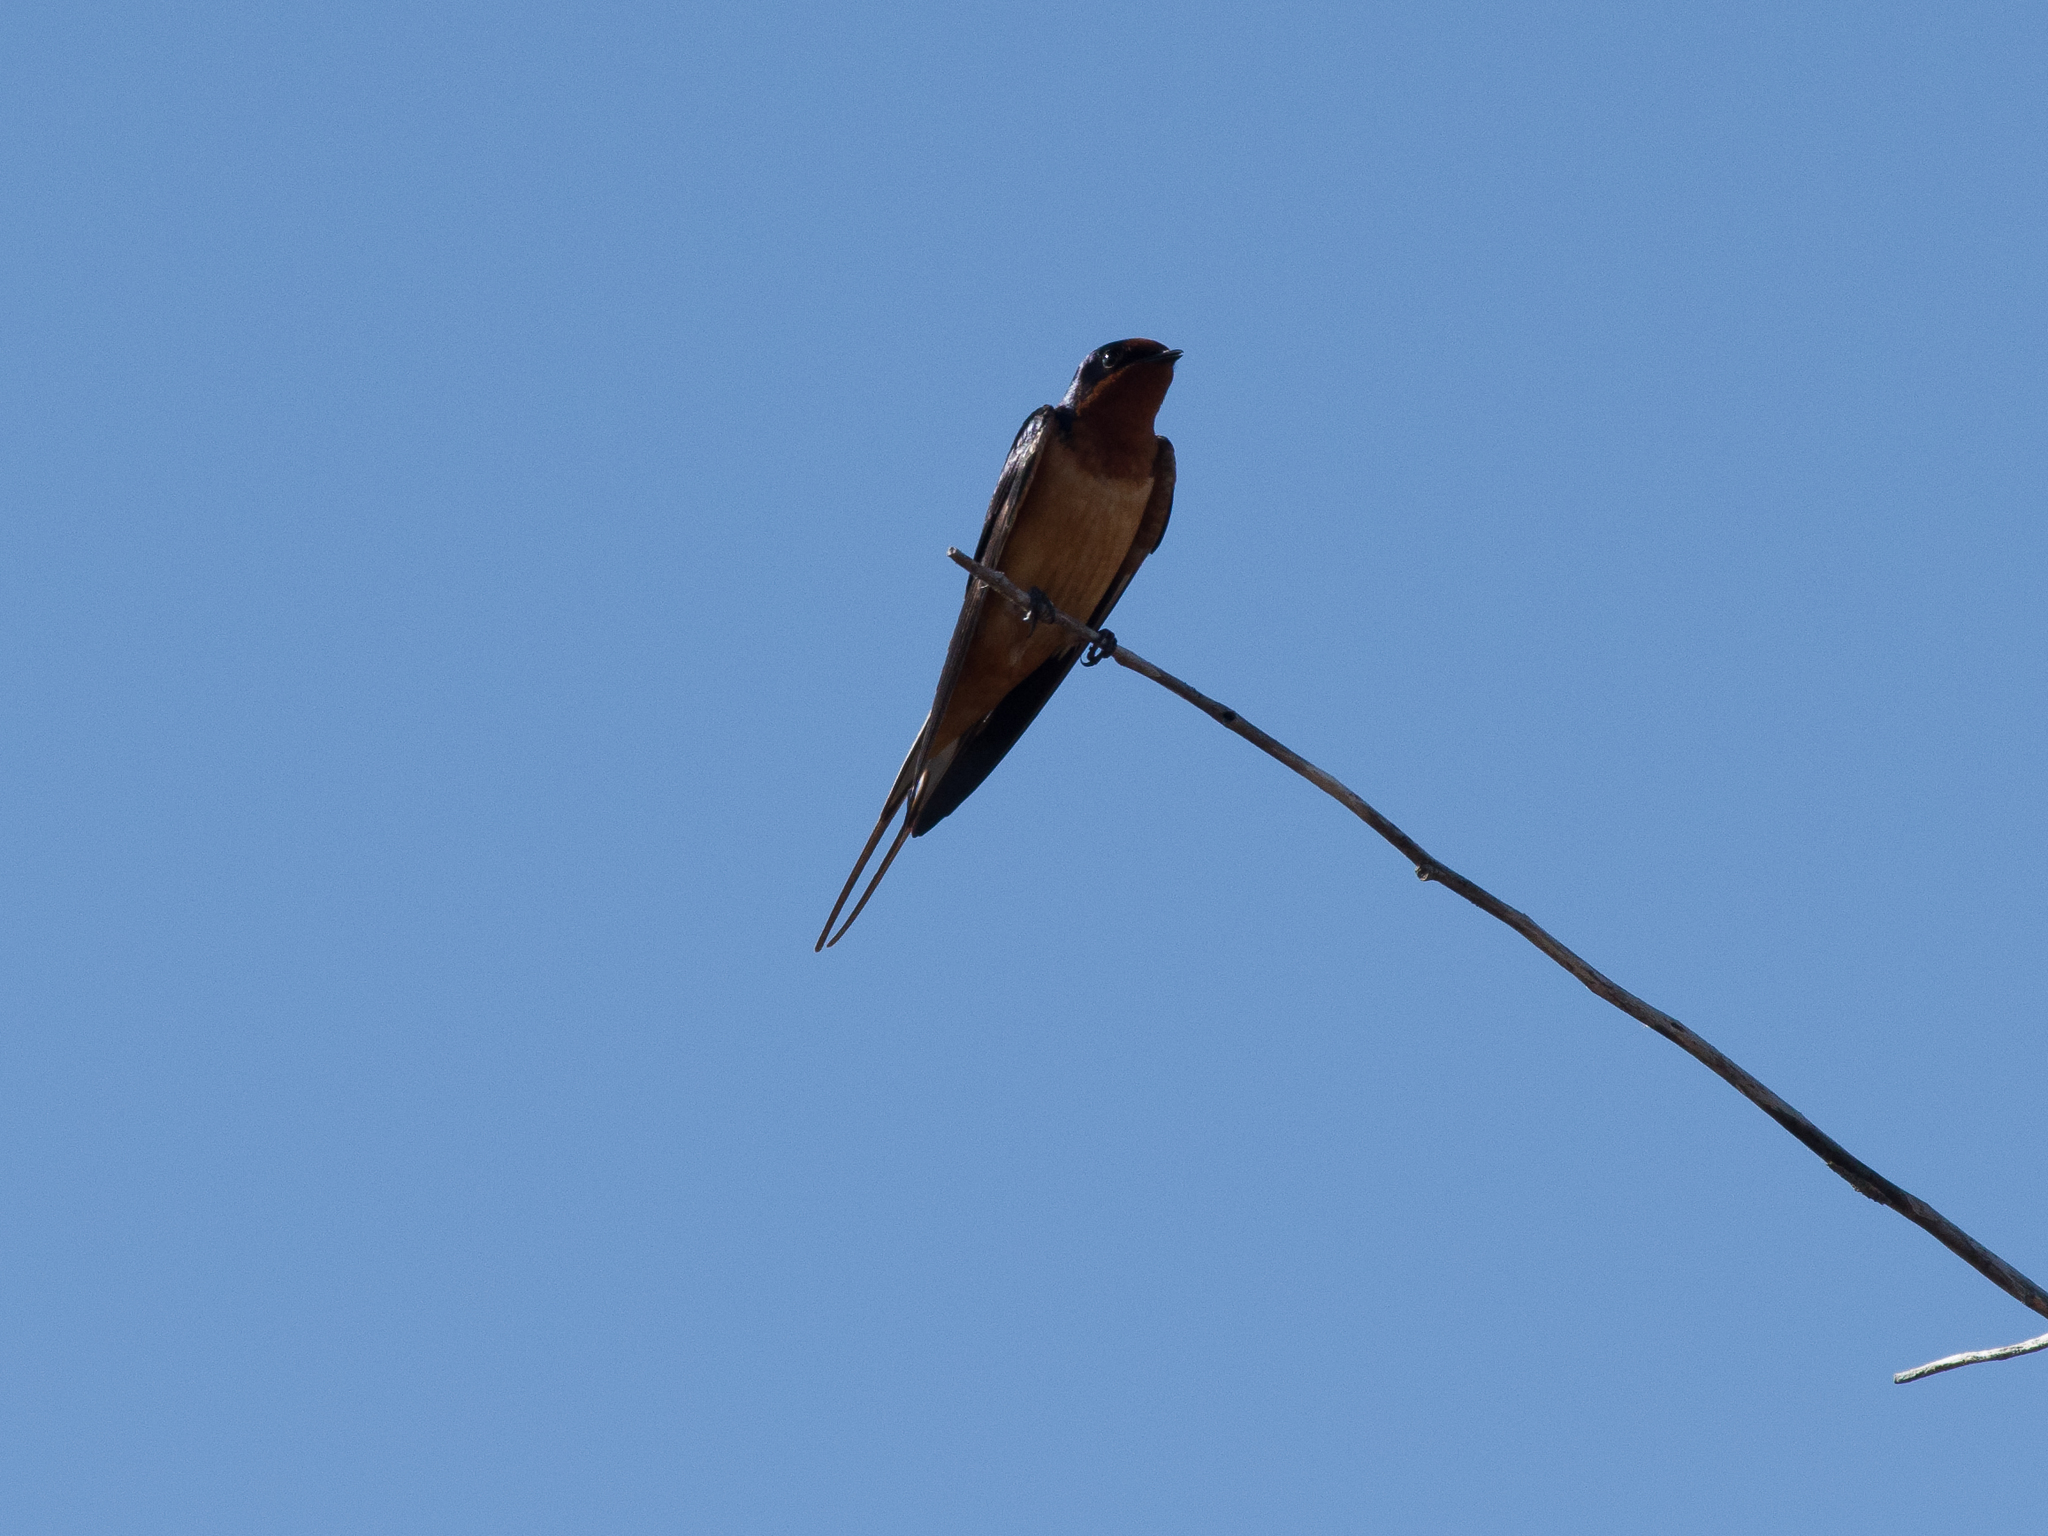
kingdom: Animalia
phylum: Chordata
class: Aves
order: Passeriformes
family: Hirundinidae
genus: Hirundo
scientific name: Hirundo rustica
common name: Barn swallow
